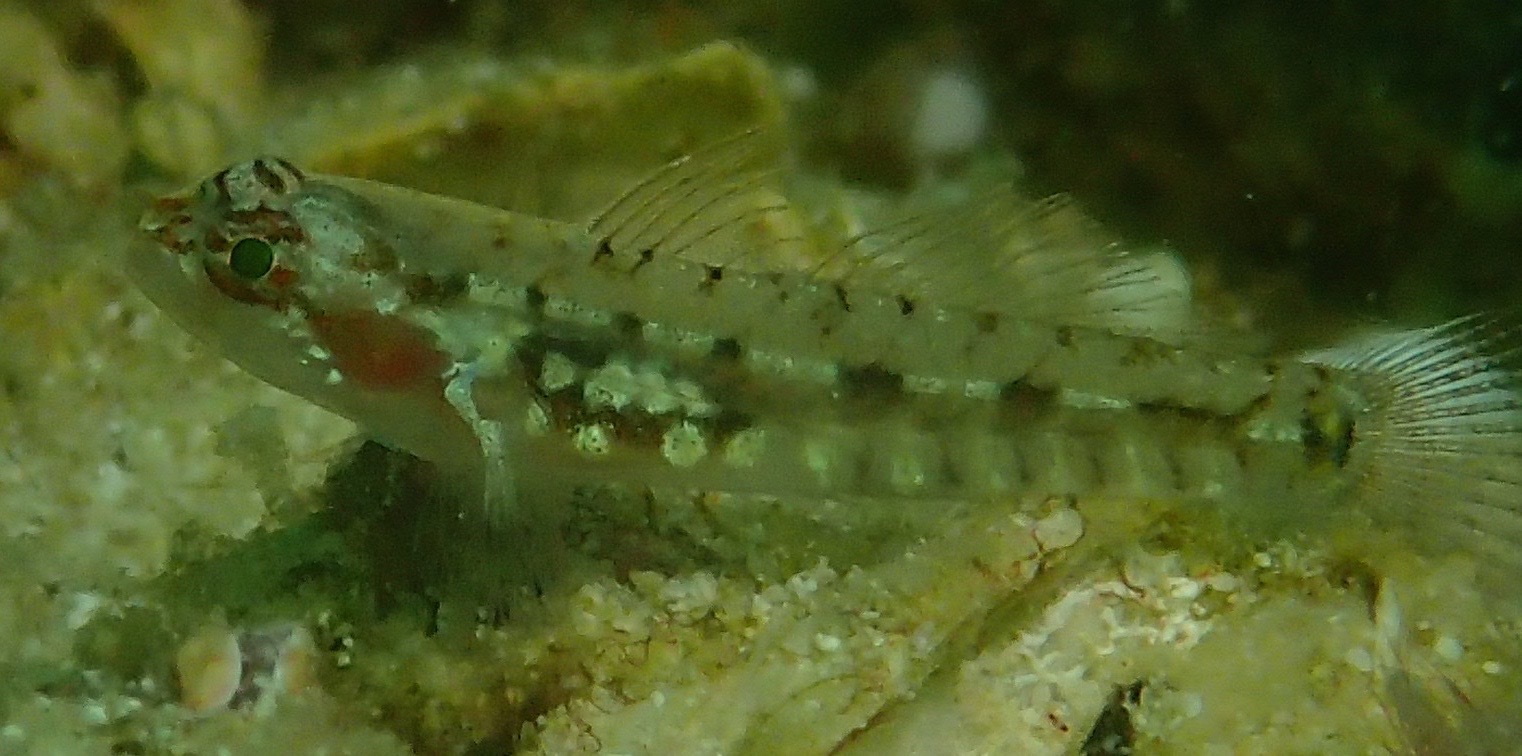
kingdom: Animalia
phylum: Chordata
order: Perciformes
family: Gobiidae
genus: Eviota
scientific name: Eviota longirostris
